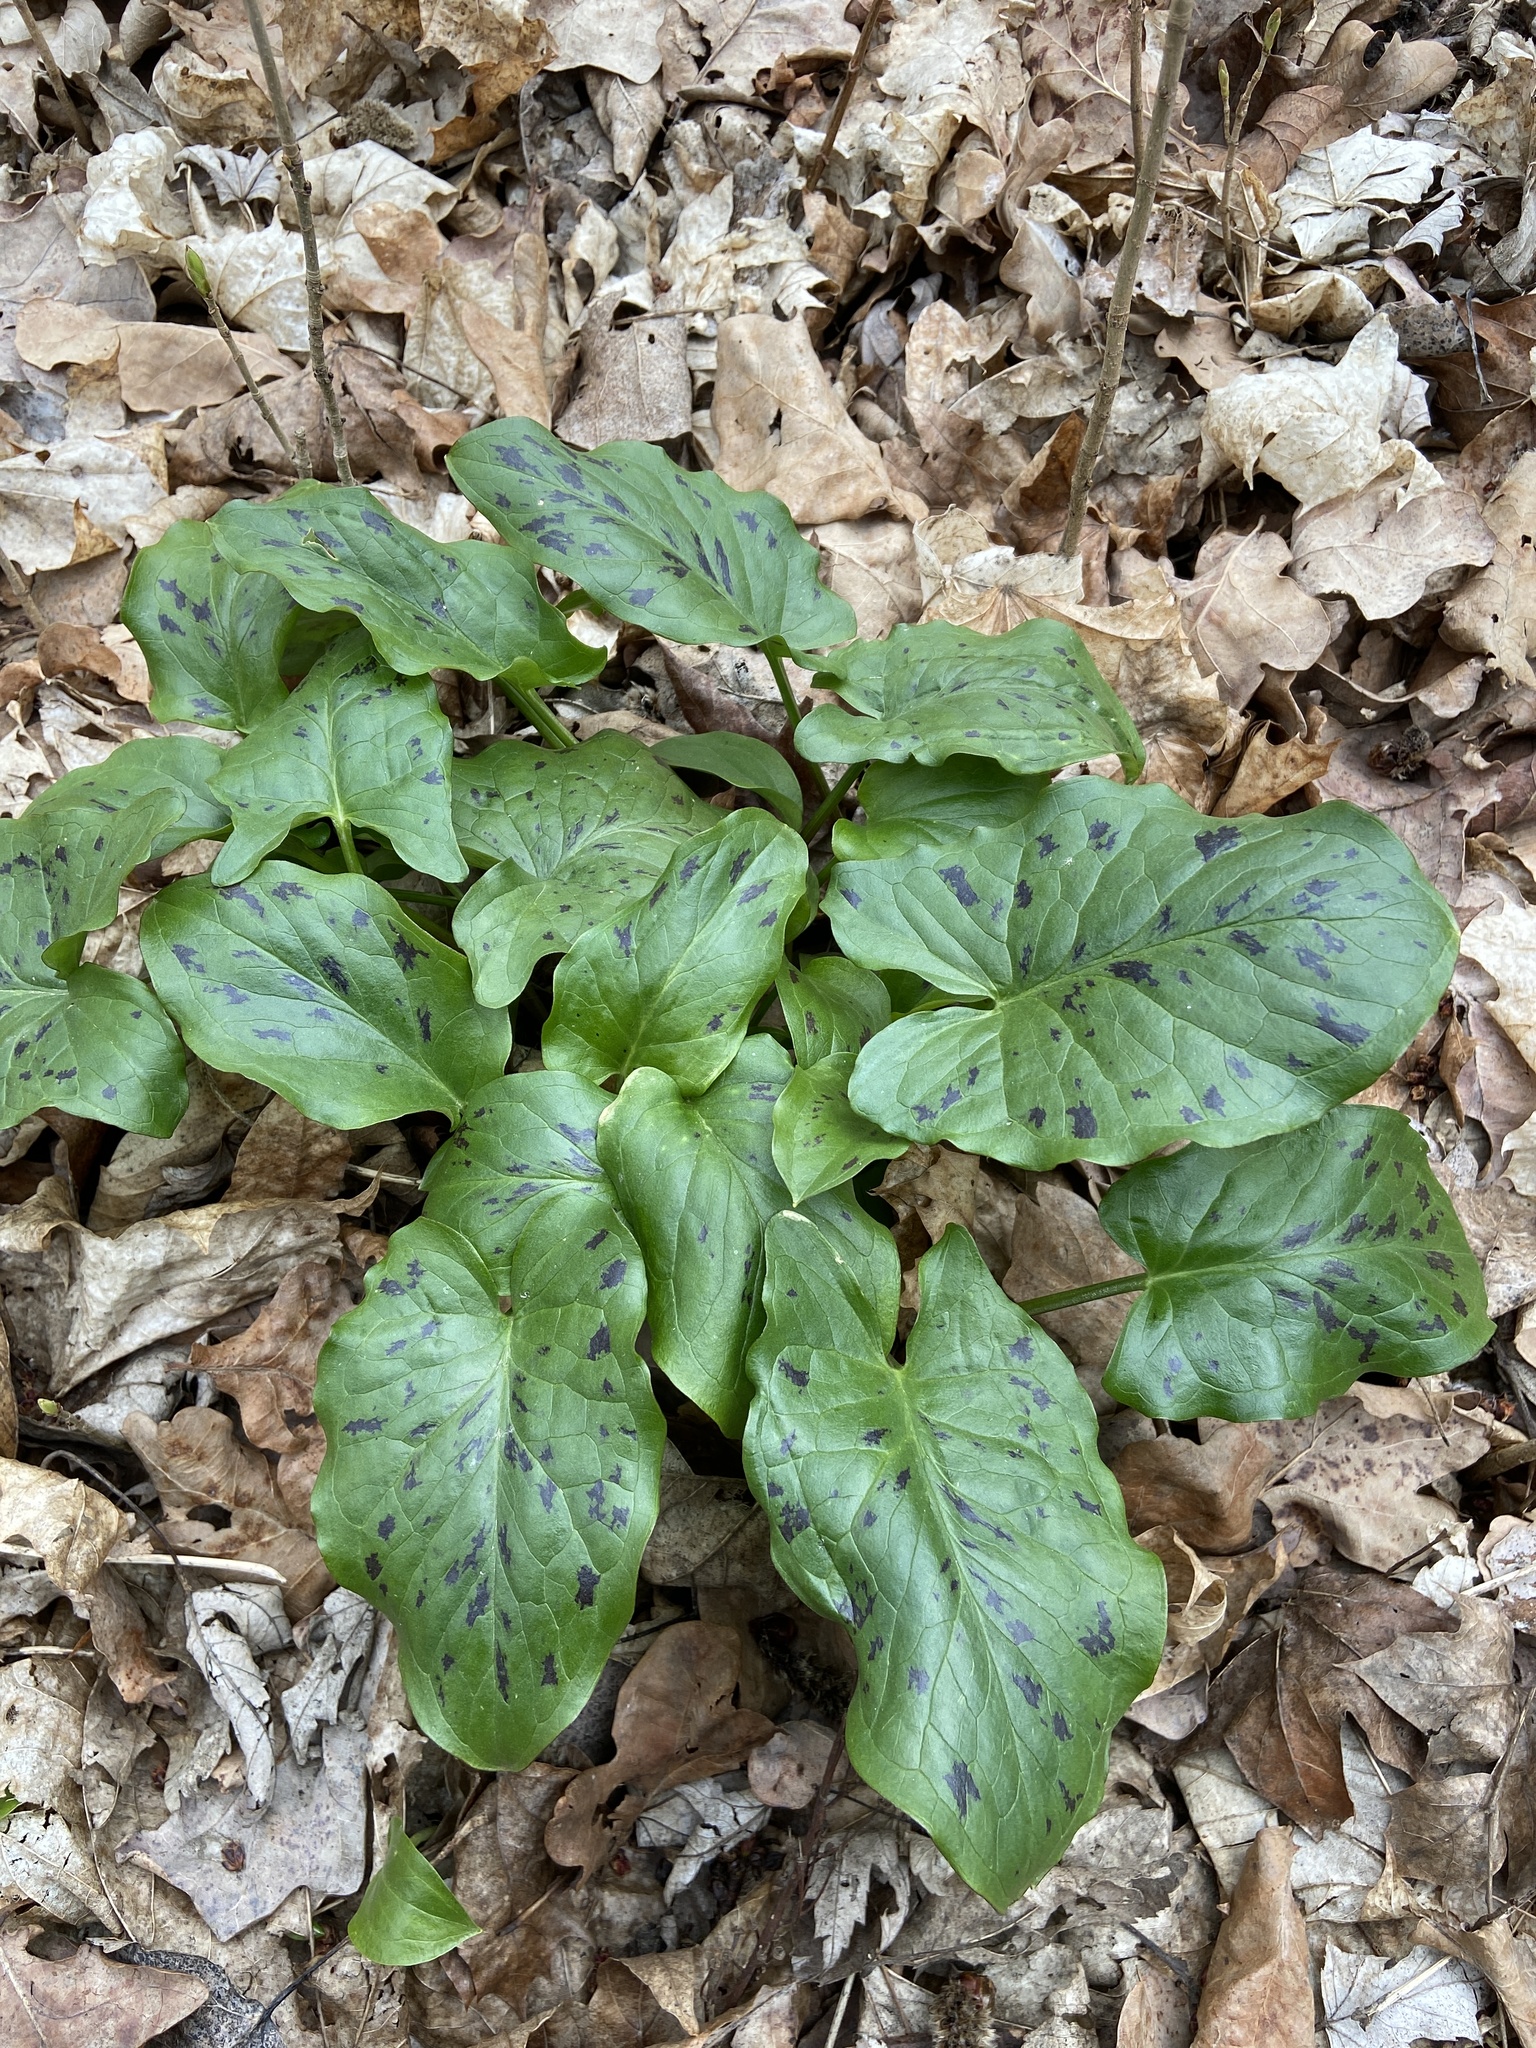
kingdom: Plantae
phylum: Tracheophyta
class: Liliopsida
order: Alismatales
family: Araceae
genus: Arum
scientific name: Arum maculatum
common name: Lords-and-ladies
